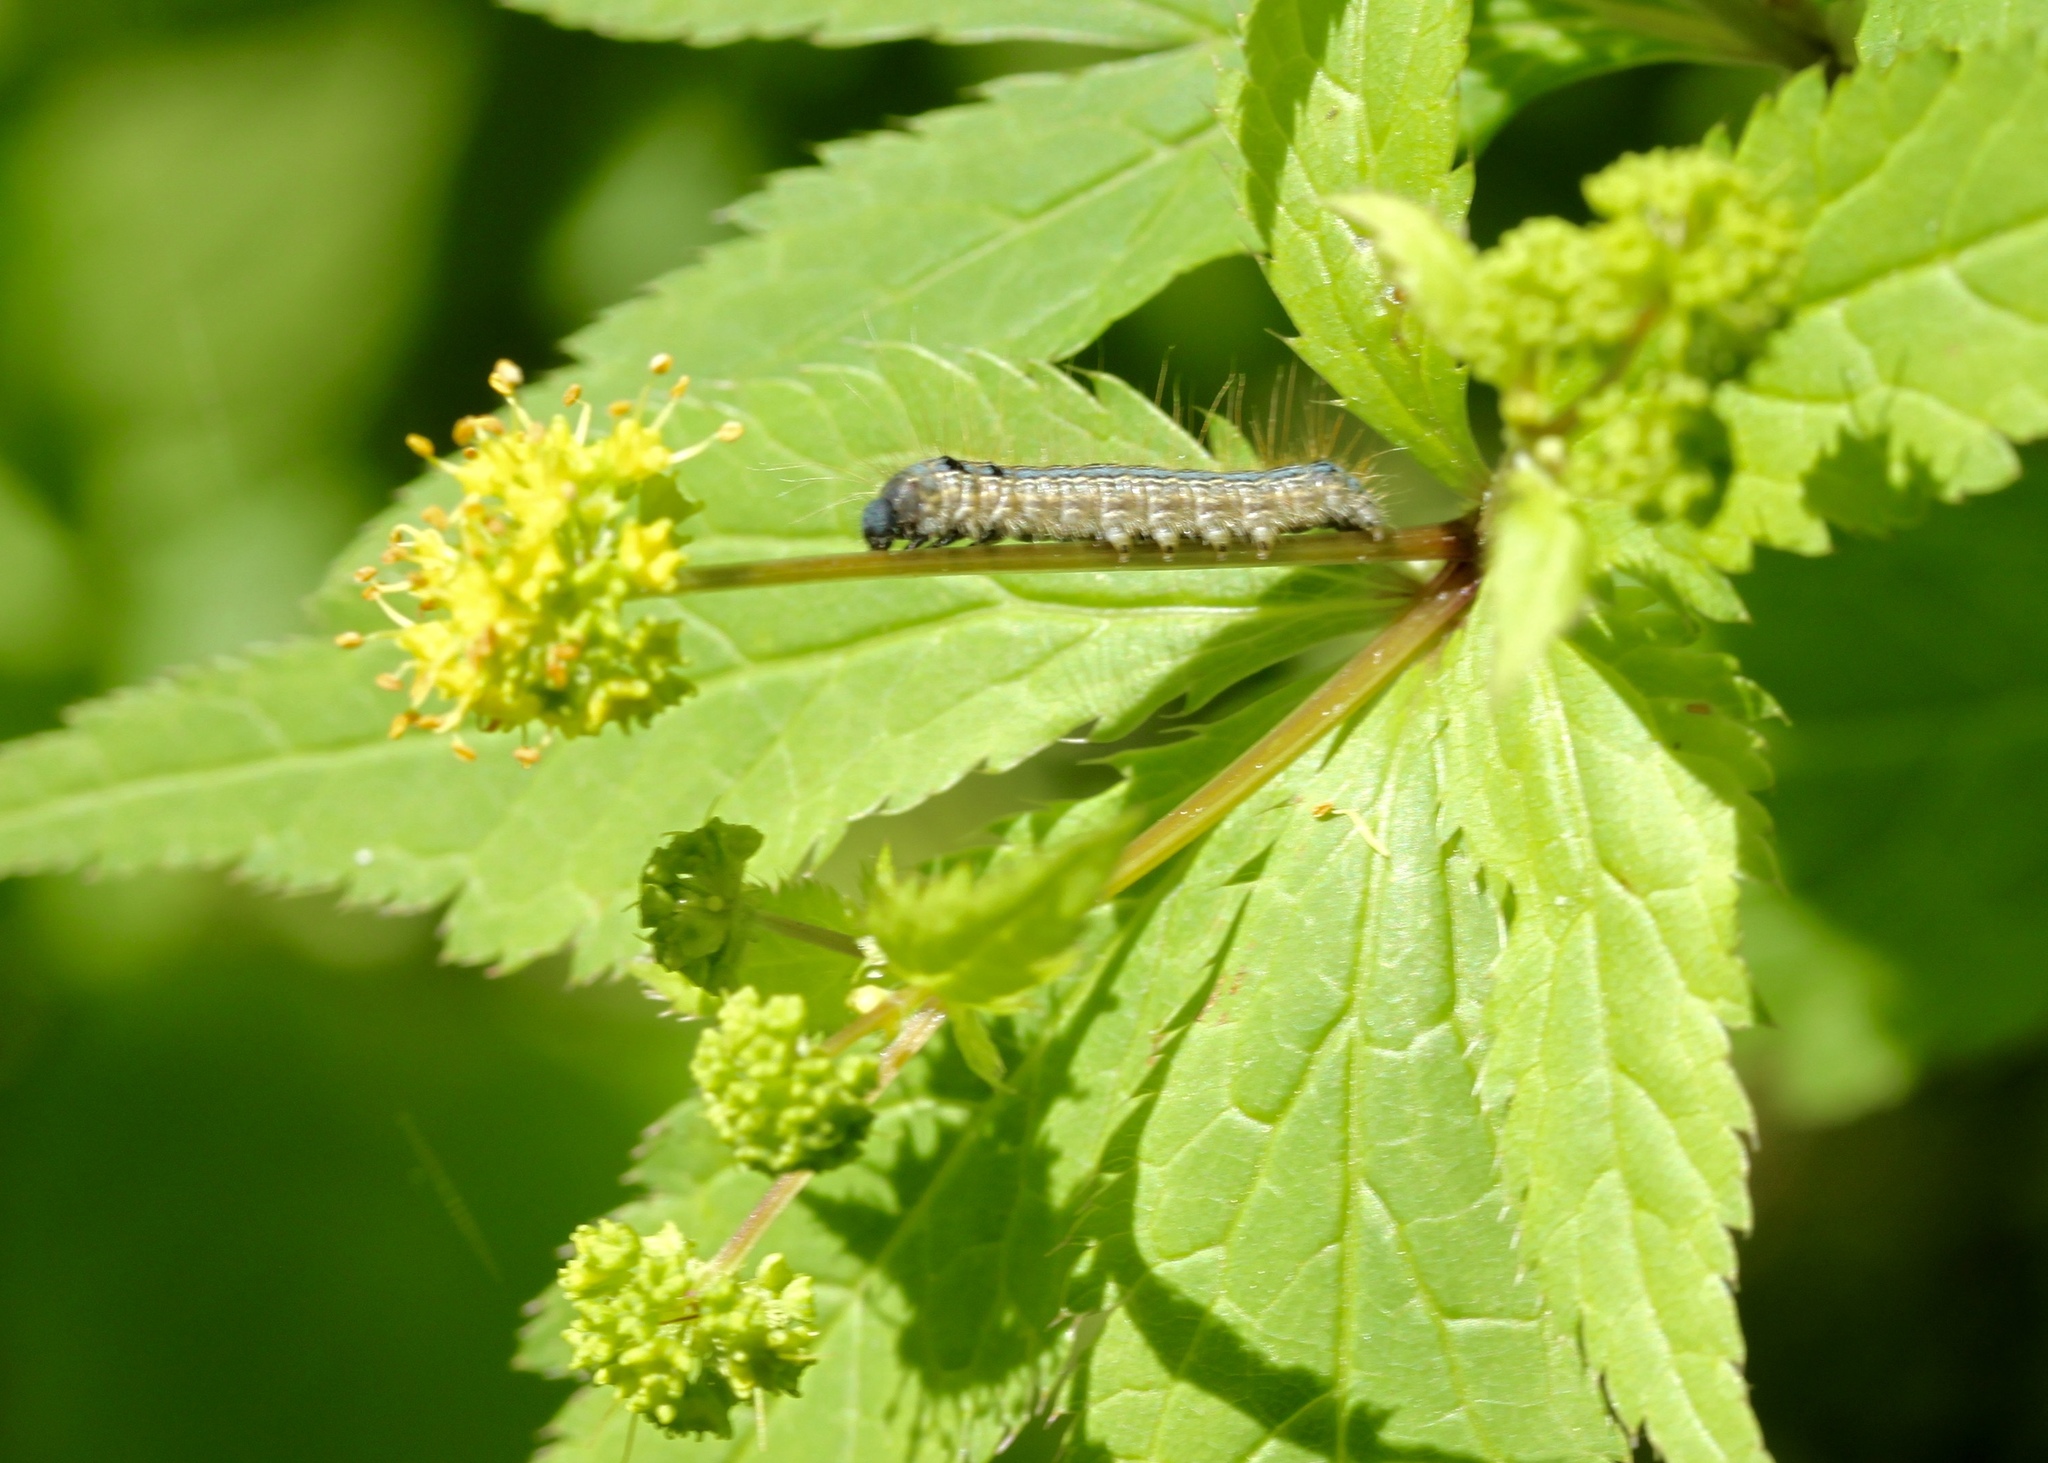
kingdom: Animalia
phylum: Arthropoda
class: Insecta
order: Lepidoptera
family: Lasiocampidae
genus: Malacosoma
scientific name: Malacosoma americana
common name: Eastern tent caterpillar moth
